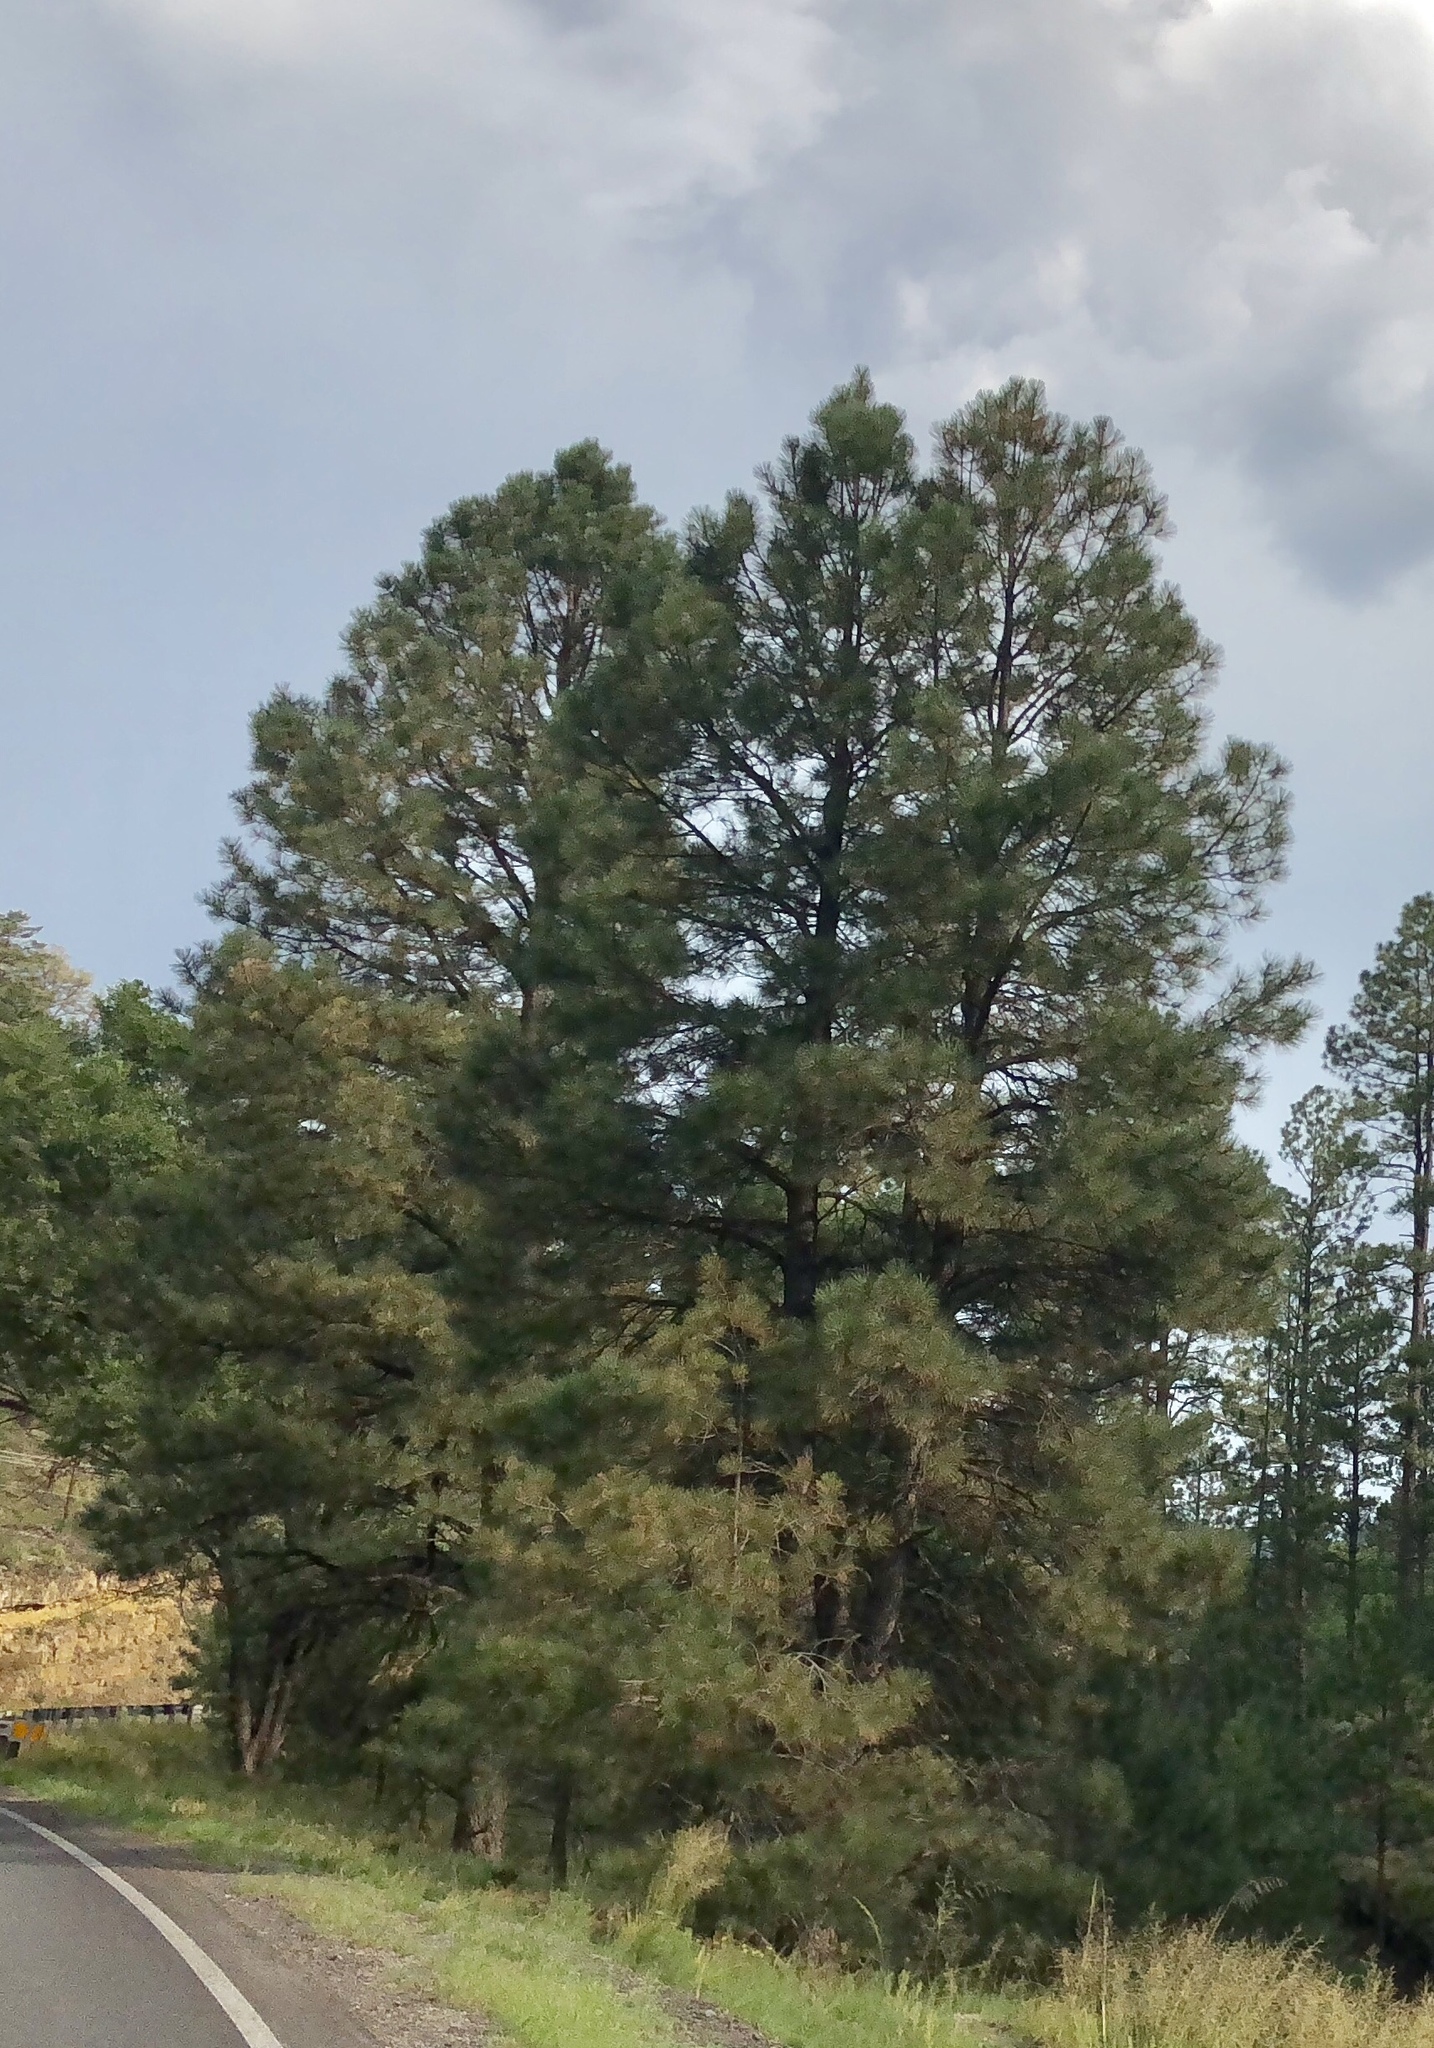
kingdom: Plantae
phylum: Tracheophyta
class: Pinopsida
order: Pinales
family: Pinaceae
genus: Pinus
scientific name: Pinus ponderosa
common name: Western yellow-pine
